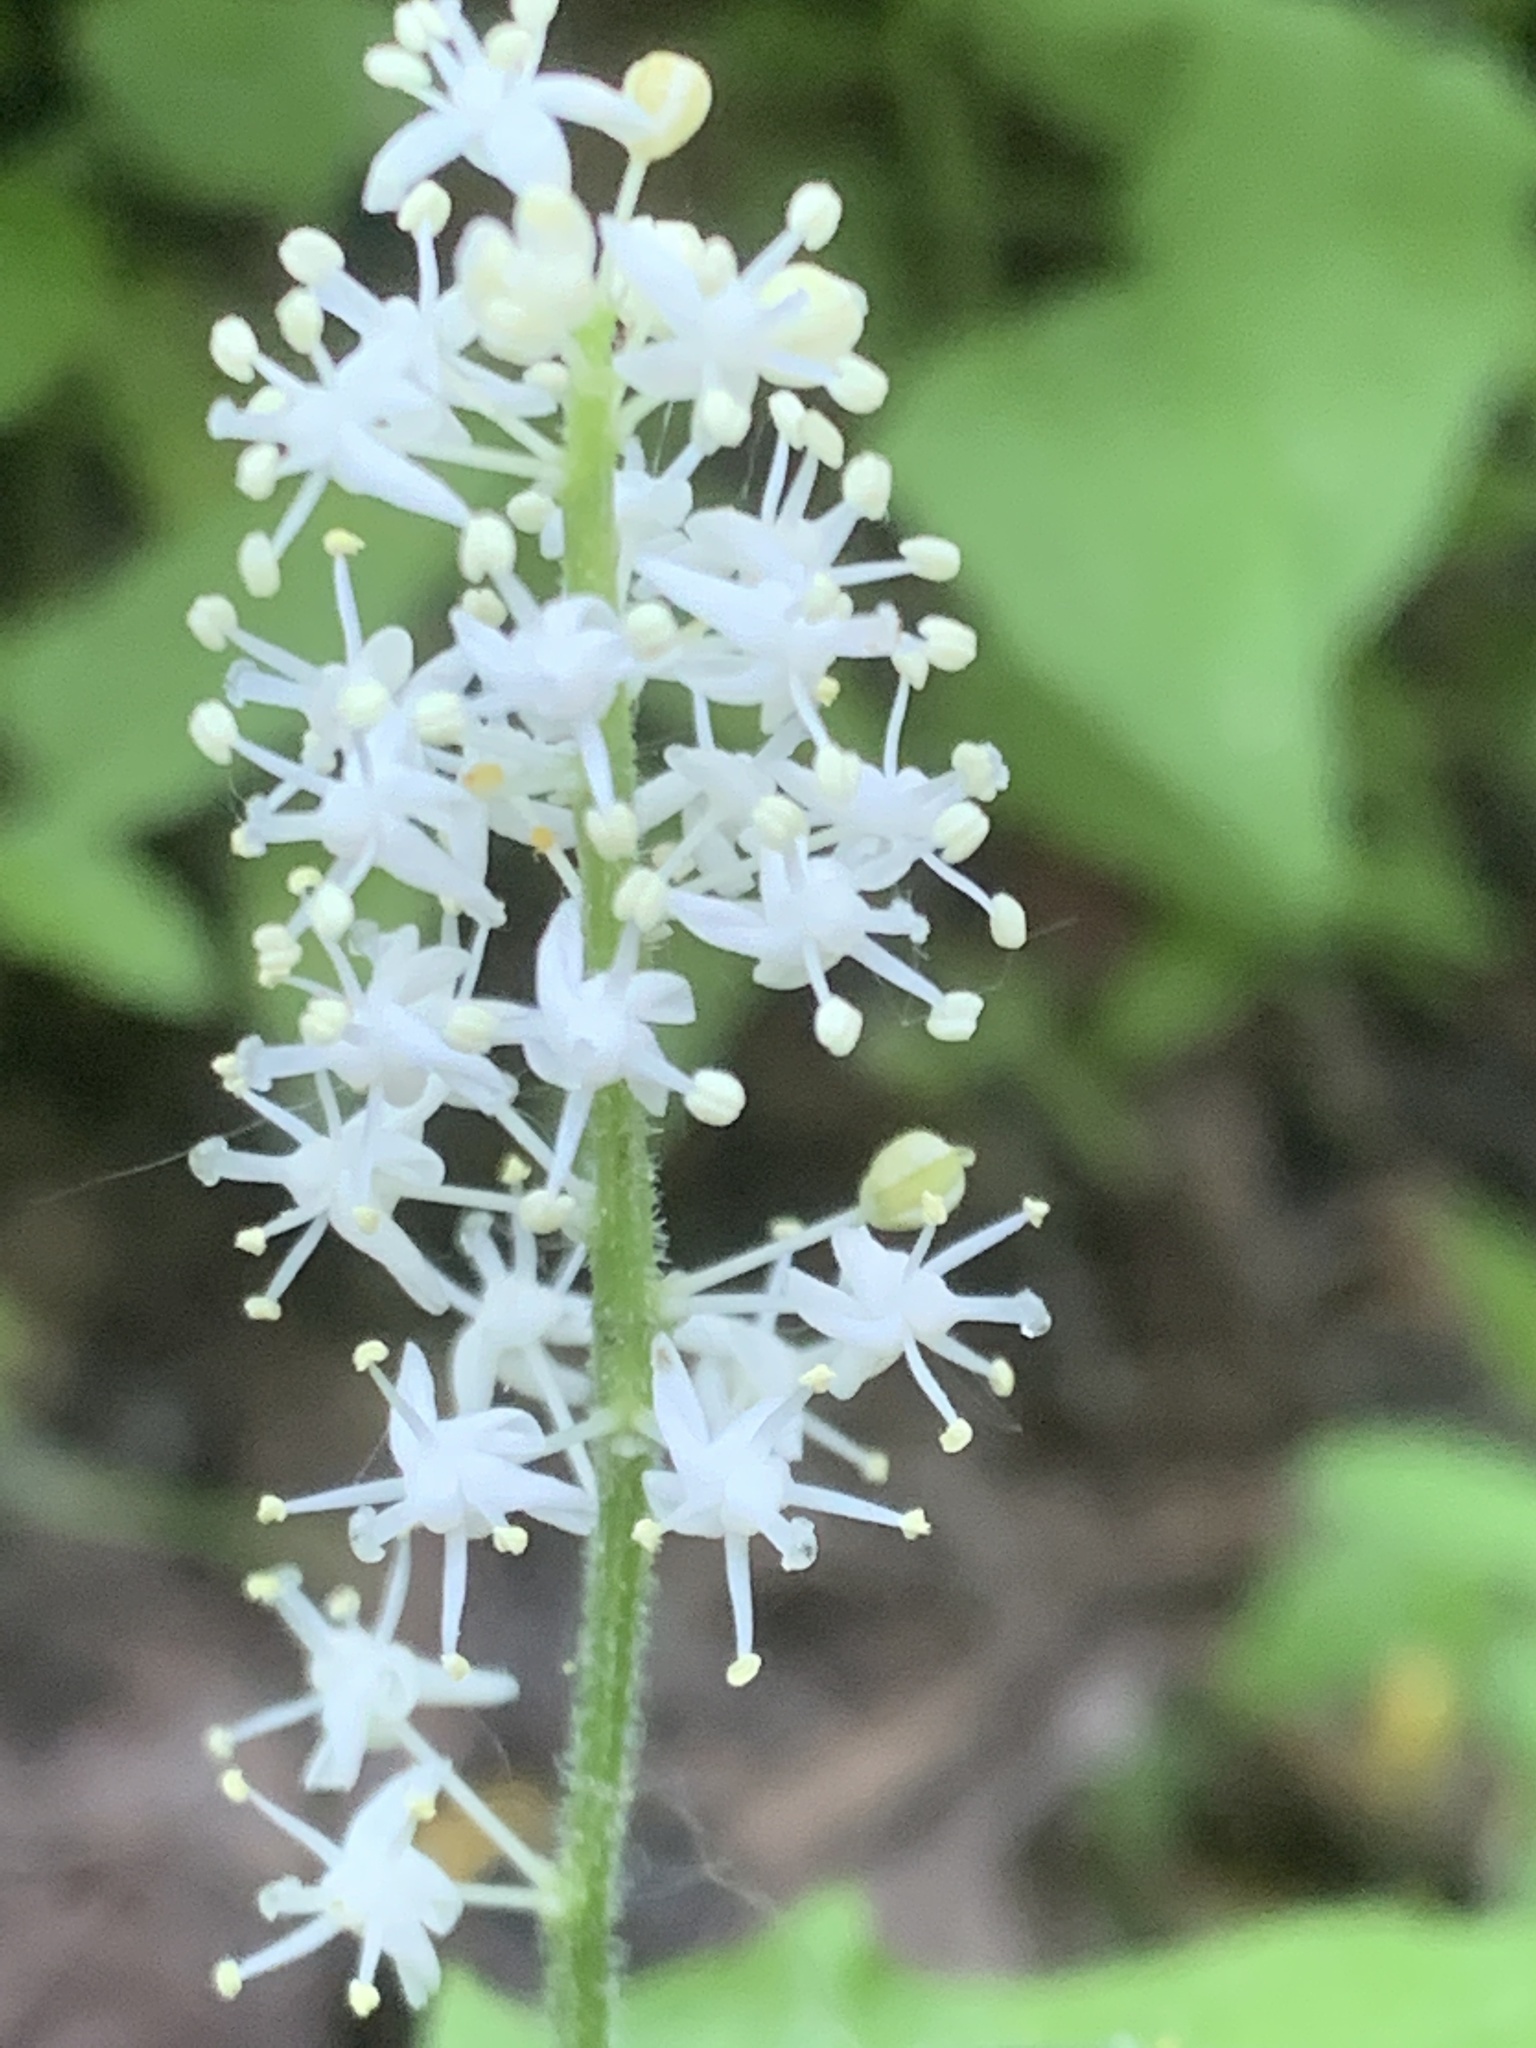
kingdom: Plantae
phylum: Tracheophyta
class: Liliopsida
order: Asparagales
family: Asparagaceae
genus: Maianthemum
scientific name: Maianthemum canadense
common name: False lily-of-the-valley
